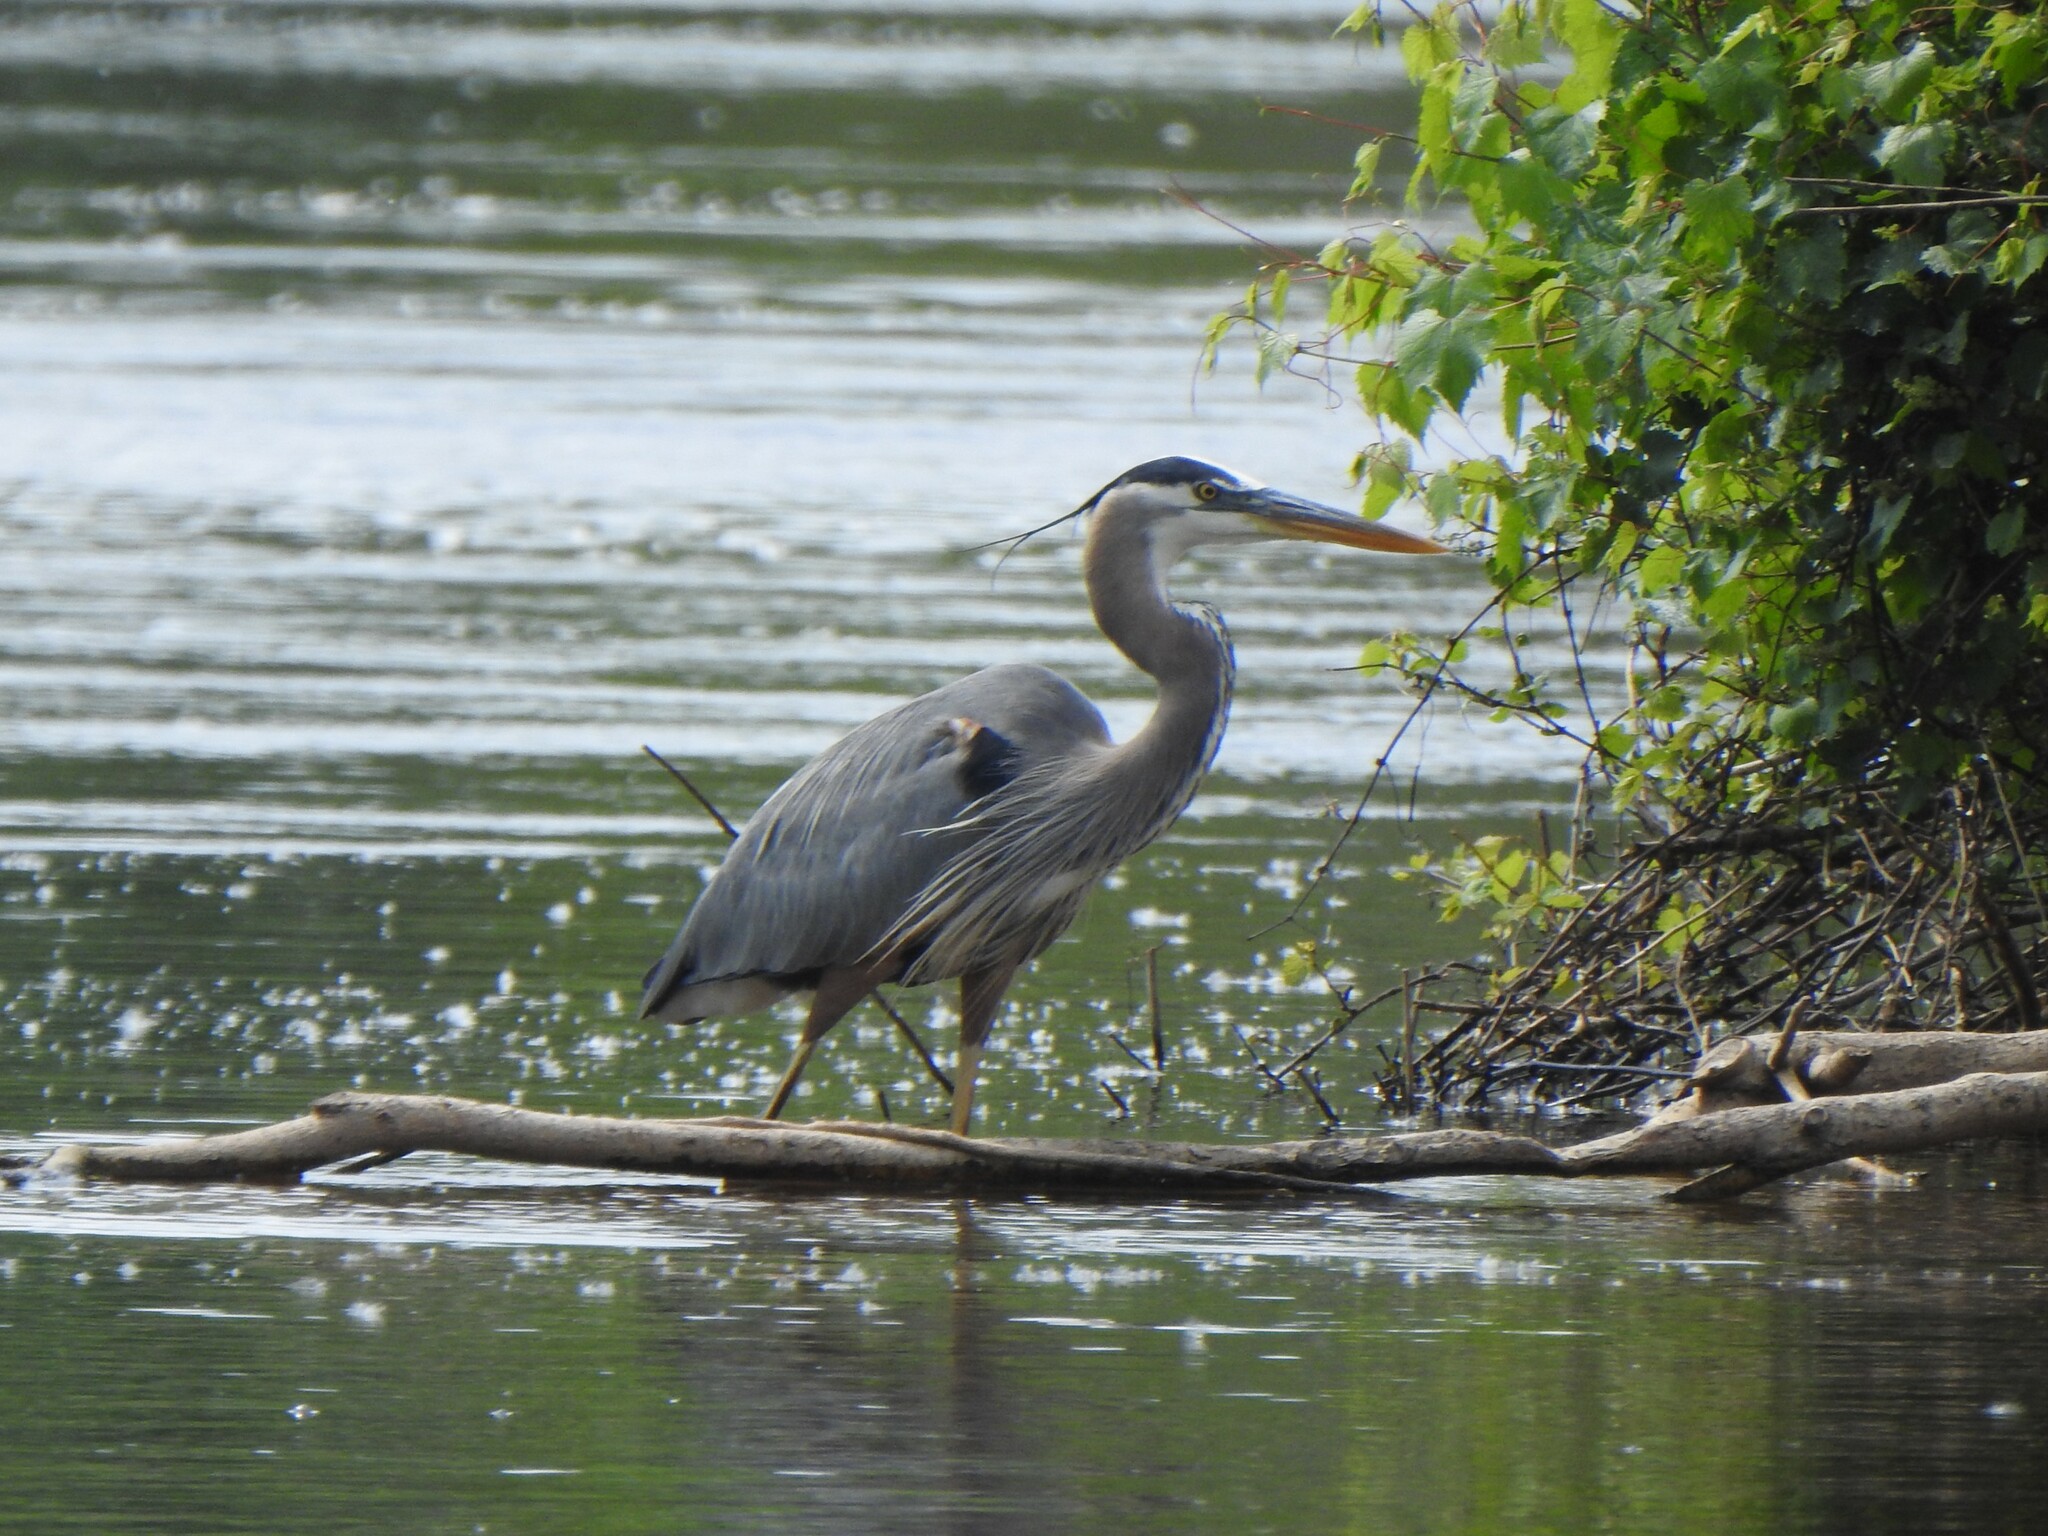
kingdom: Animalia
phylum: Chordata
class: Aves
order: Pelecaniformes
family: Ardeidae
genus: Ardea
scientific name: Ardea herodias
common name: Great blue heron
